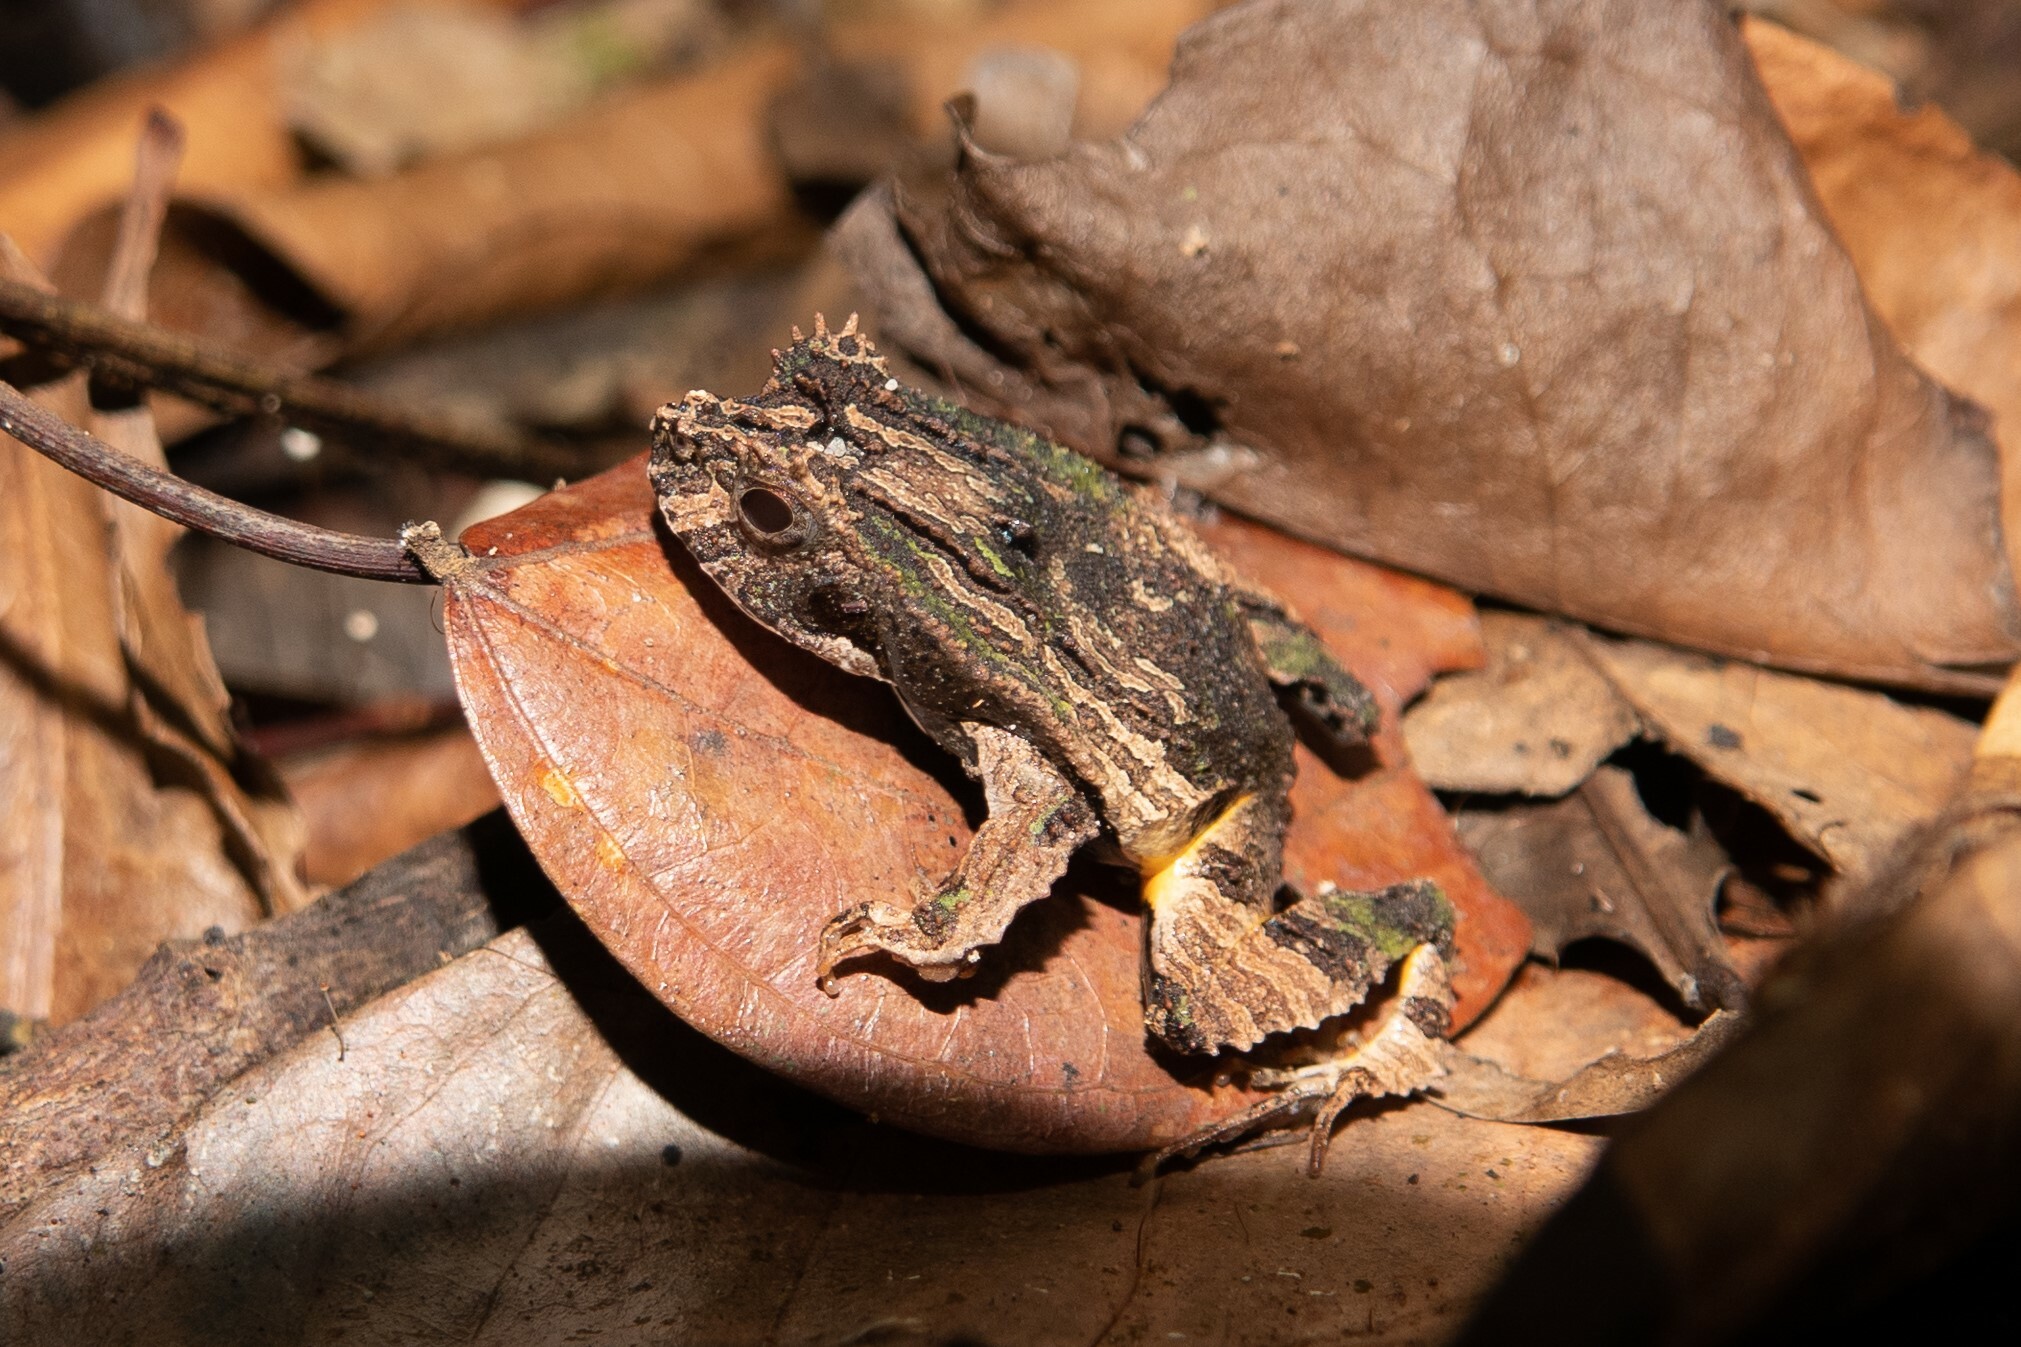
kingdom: Animalia
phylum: Chordata
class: Amphibia
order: Anura
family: Leptodactylidae
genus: Edalorhina
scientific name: Edalorhina perezi
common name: Perez’s snouted frog
